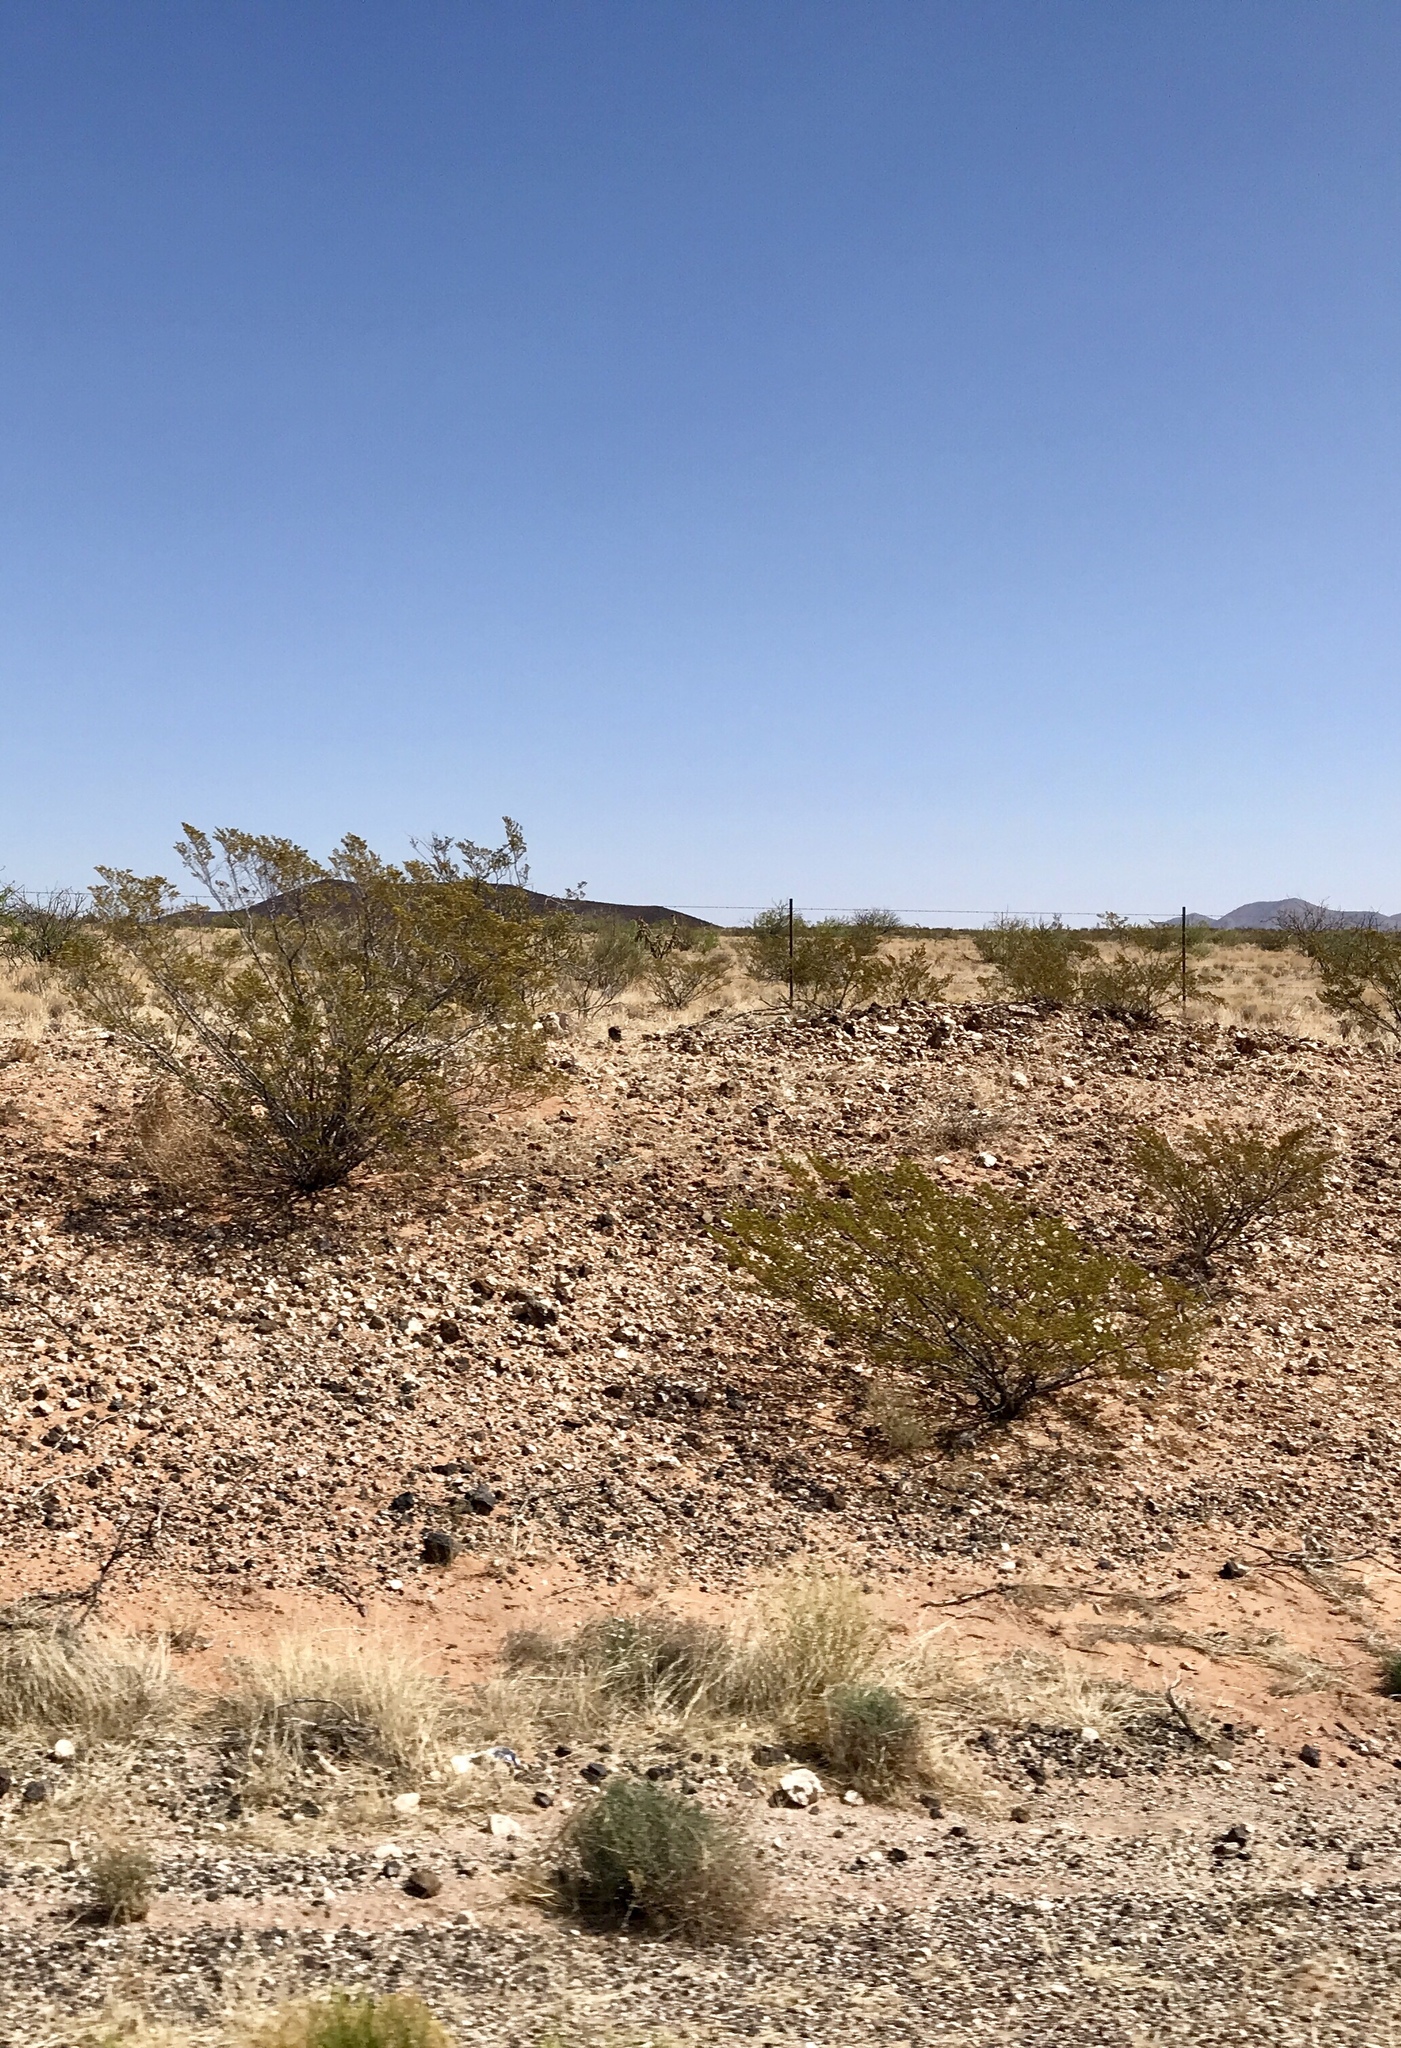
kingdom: Plantae
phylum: Tracheophyta
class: Magnoliopsida
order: Zygophyllales
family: Zygophyllaceae
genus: Larrea
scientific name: Larrea tridentata
